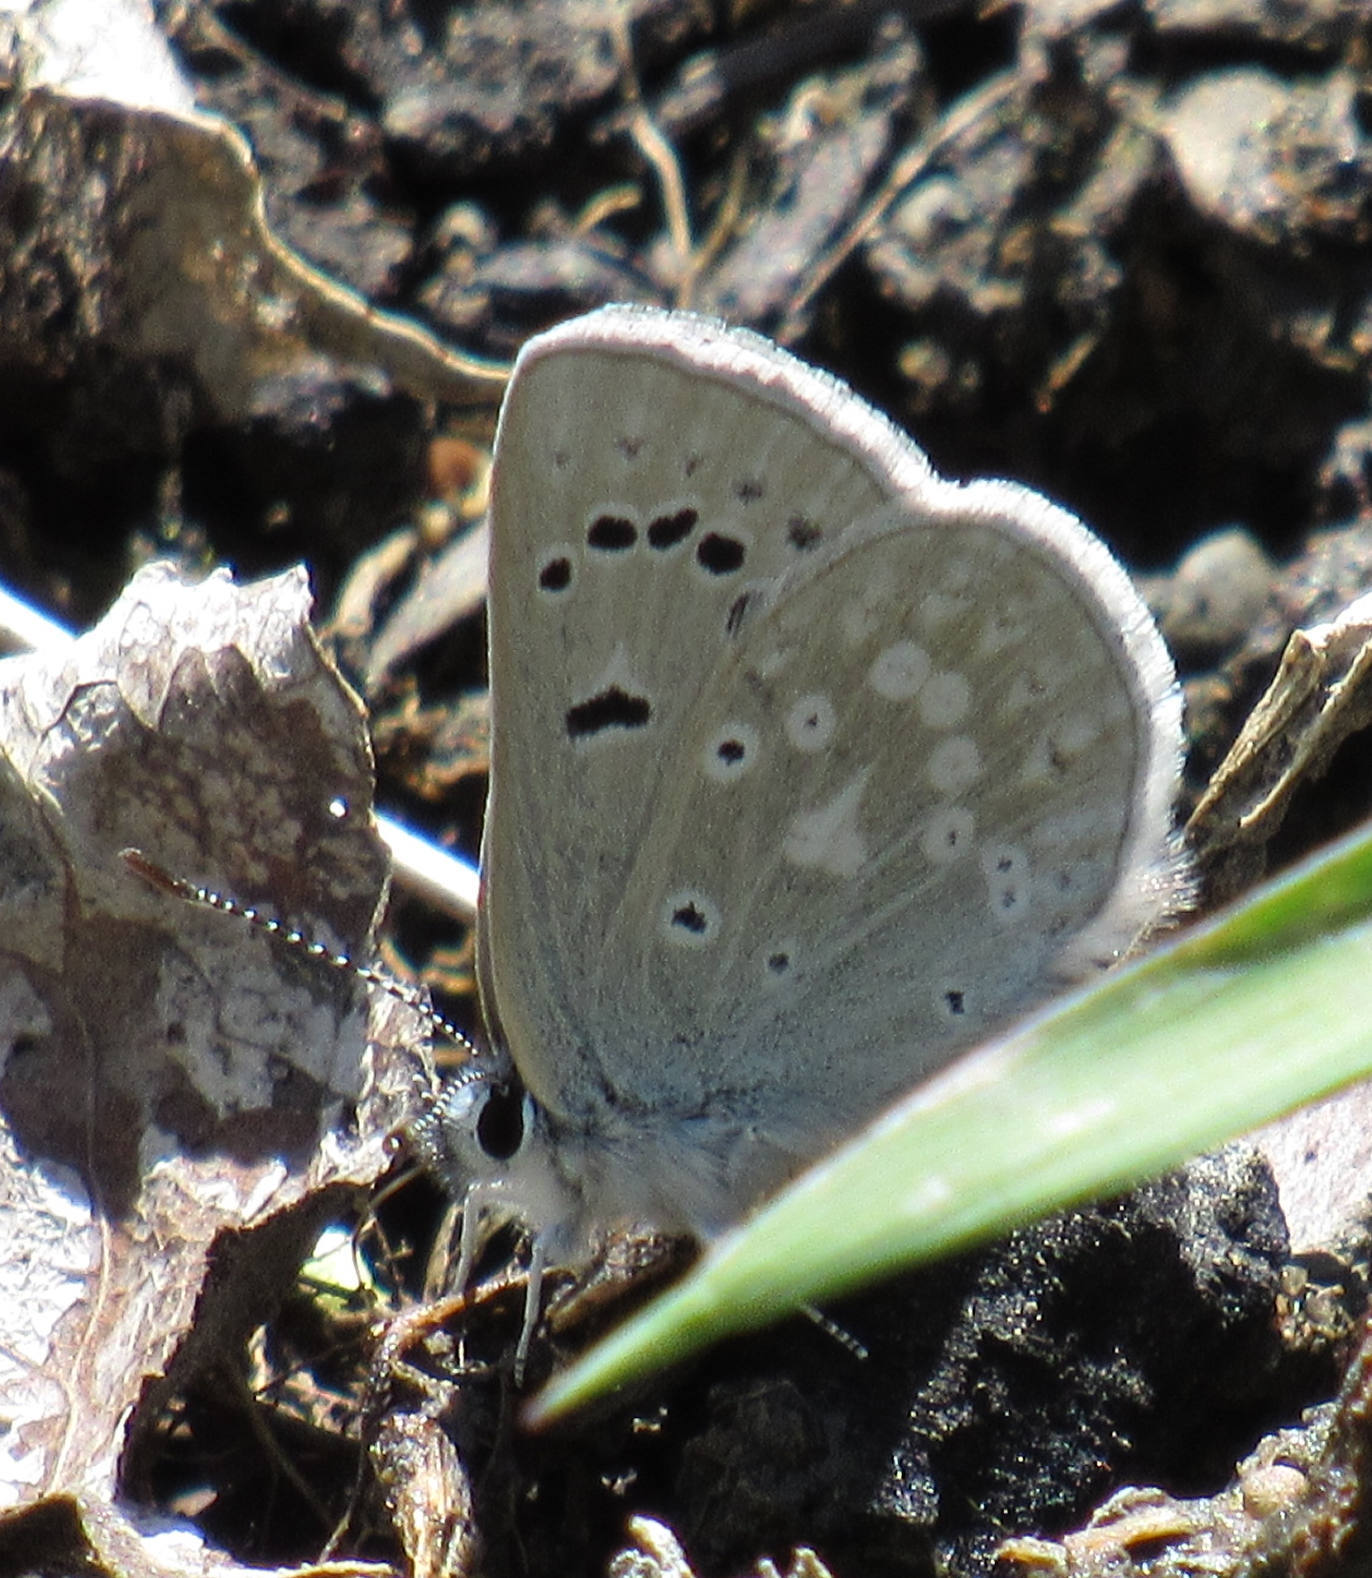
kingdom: Animalia
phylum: Arthropoda
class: Insecta
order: Lepidoptera
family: Lycaenidae
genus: Icaricia
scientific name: Icaricia icarioides
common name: Boisduval's blue
